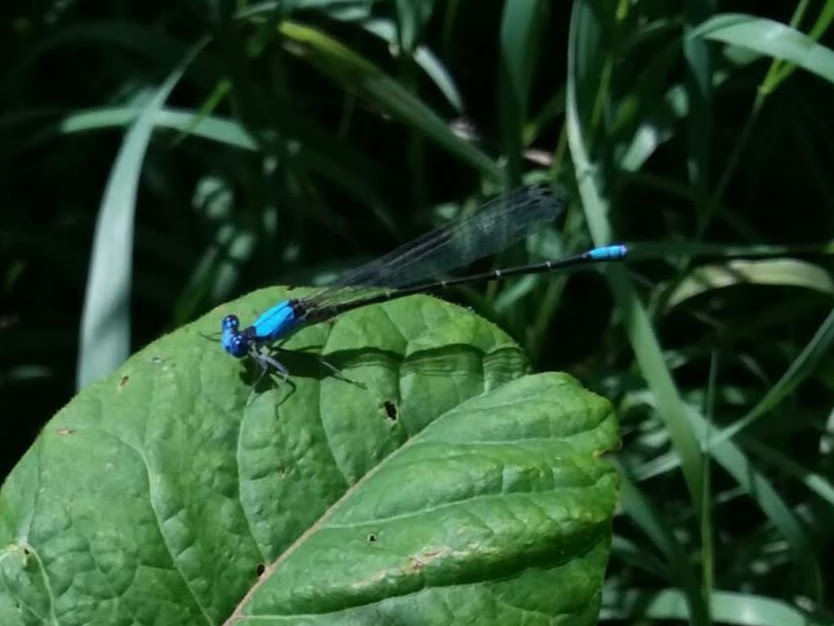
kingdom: Animalia
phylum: Arthropoda
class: Insecta
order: Odonata
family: Coenagrionidae
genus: Argia
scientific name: Argia apicalis
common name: Blue-fronted dancer
